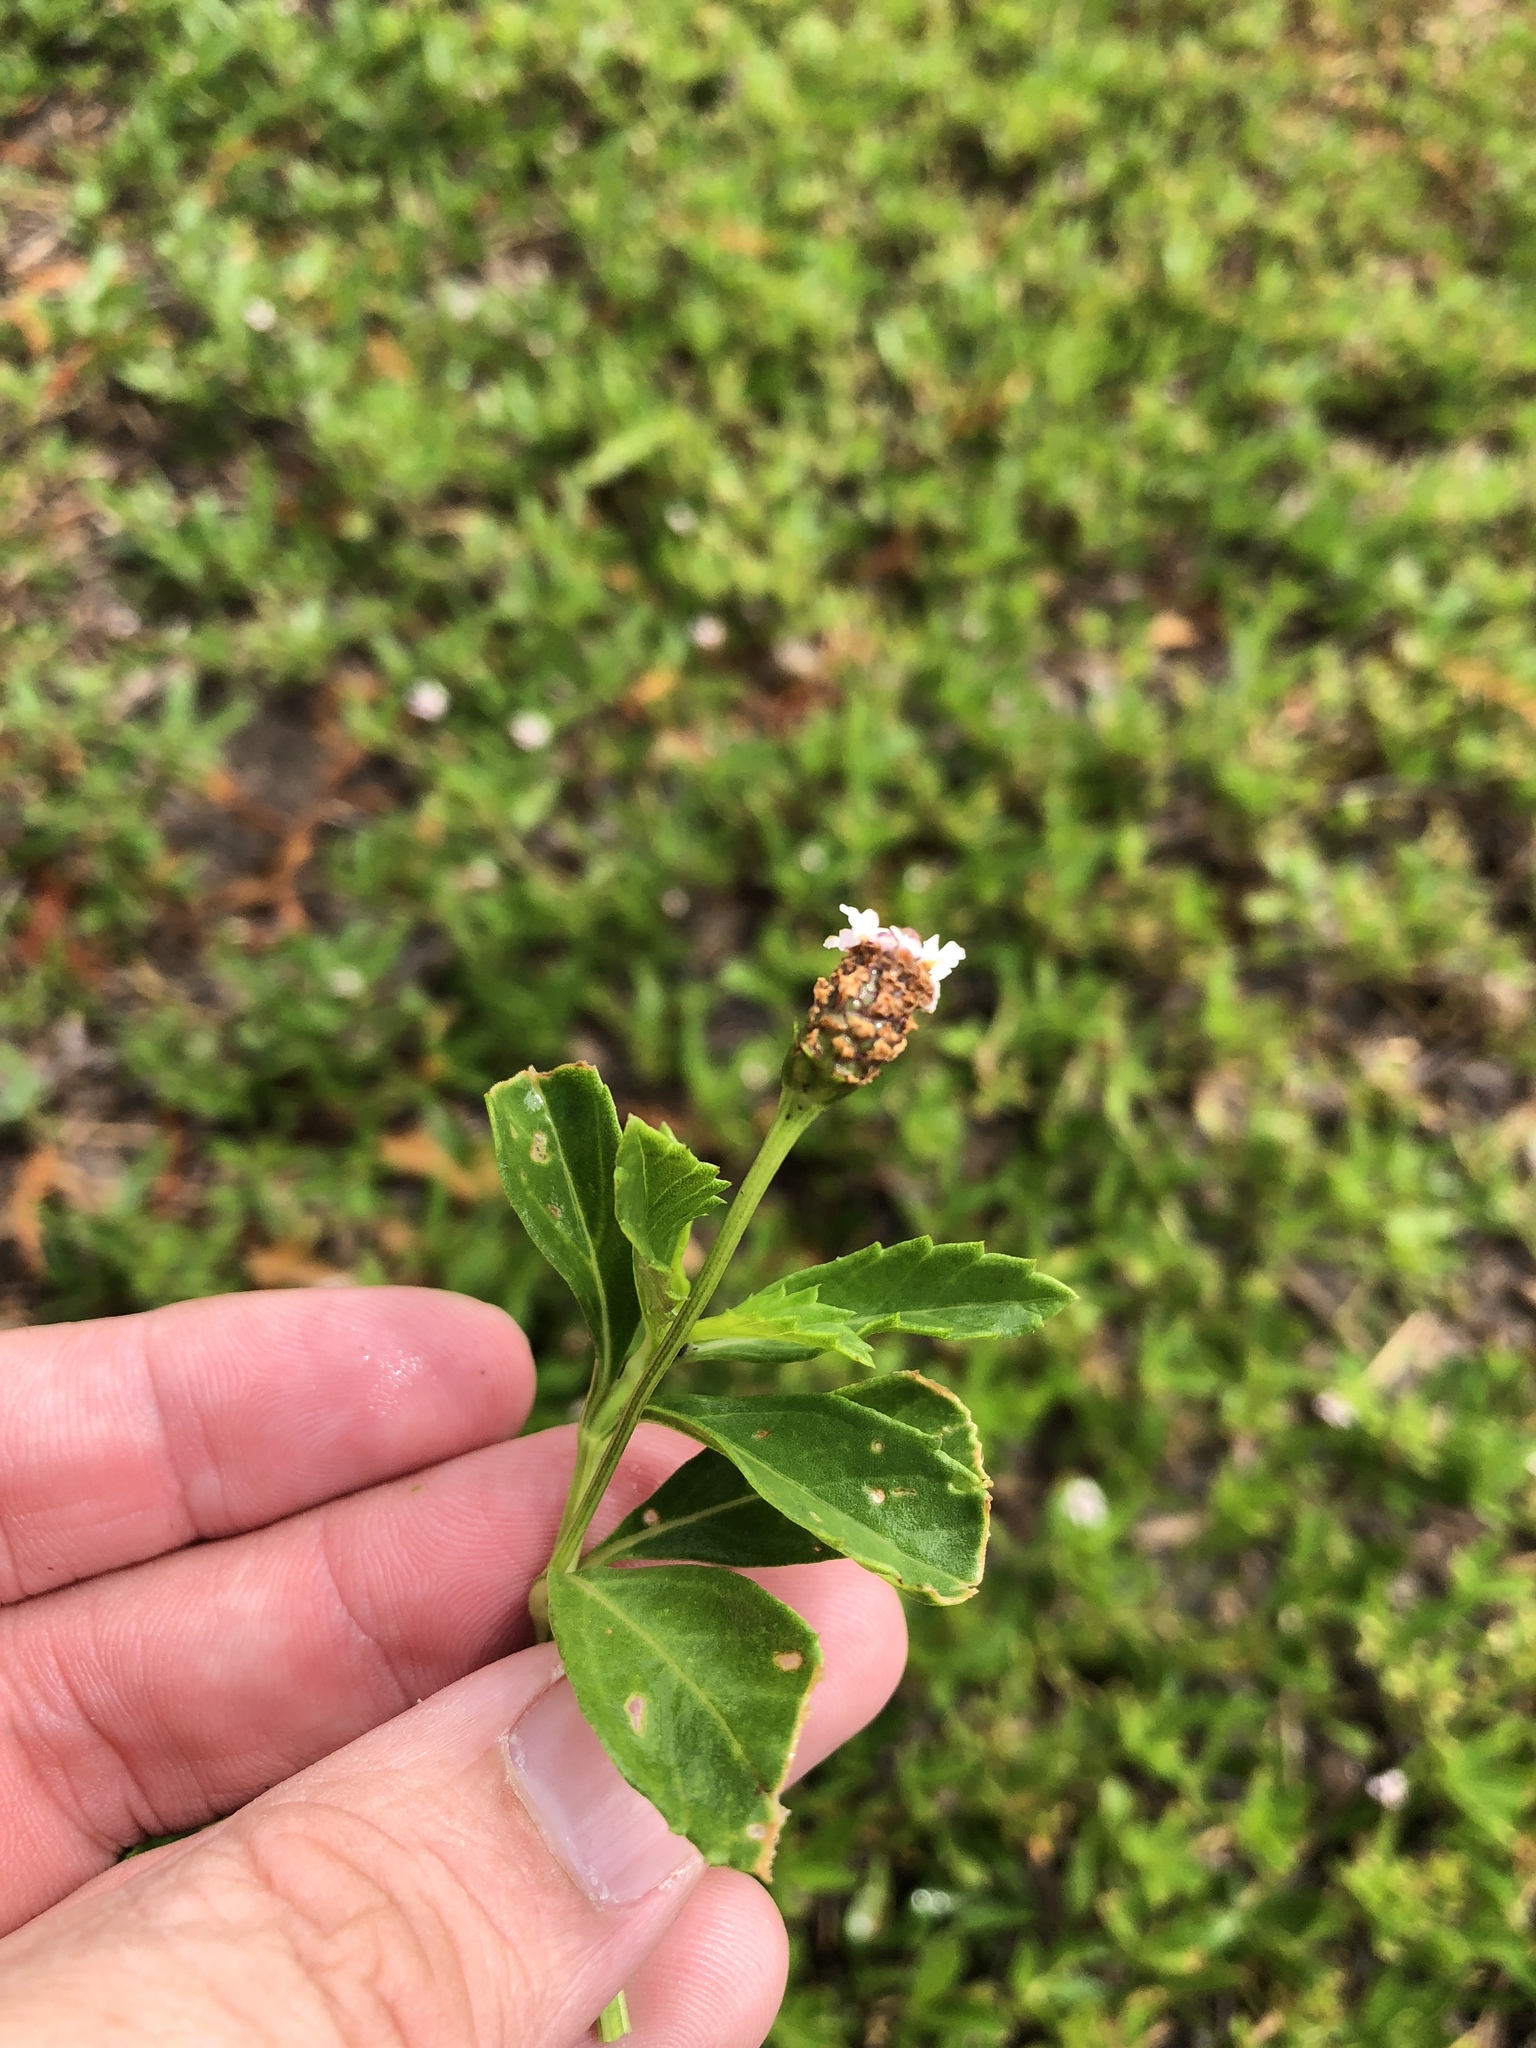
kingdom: Plantae
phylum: Tracheophyta
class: Magnoliopsida
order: Lamiales
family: Verbenaceae
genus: Phyla
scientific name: Phyla nodiflora
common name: Frogfruit
